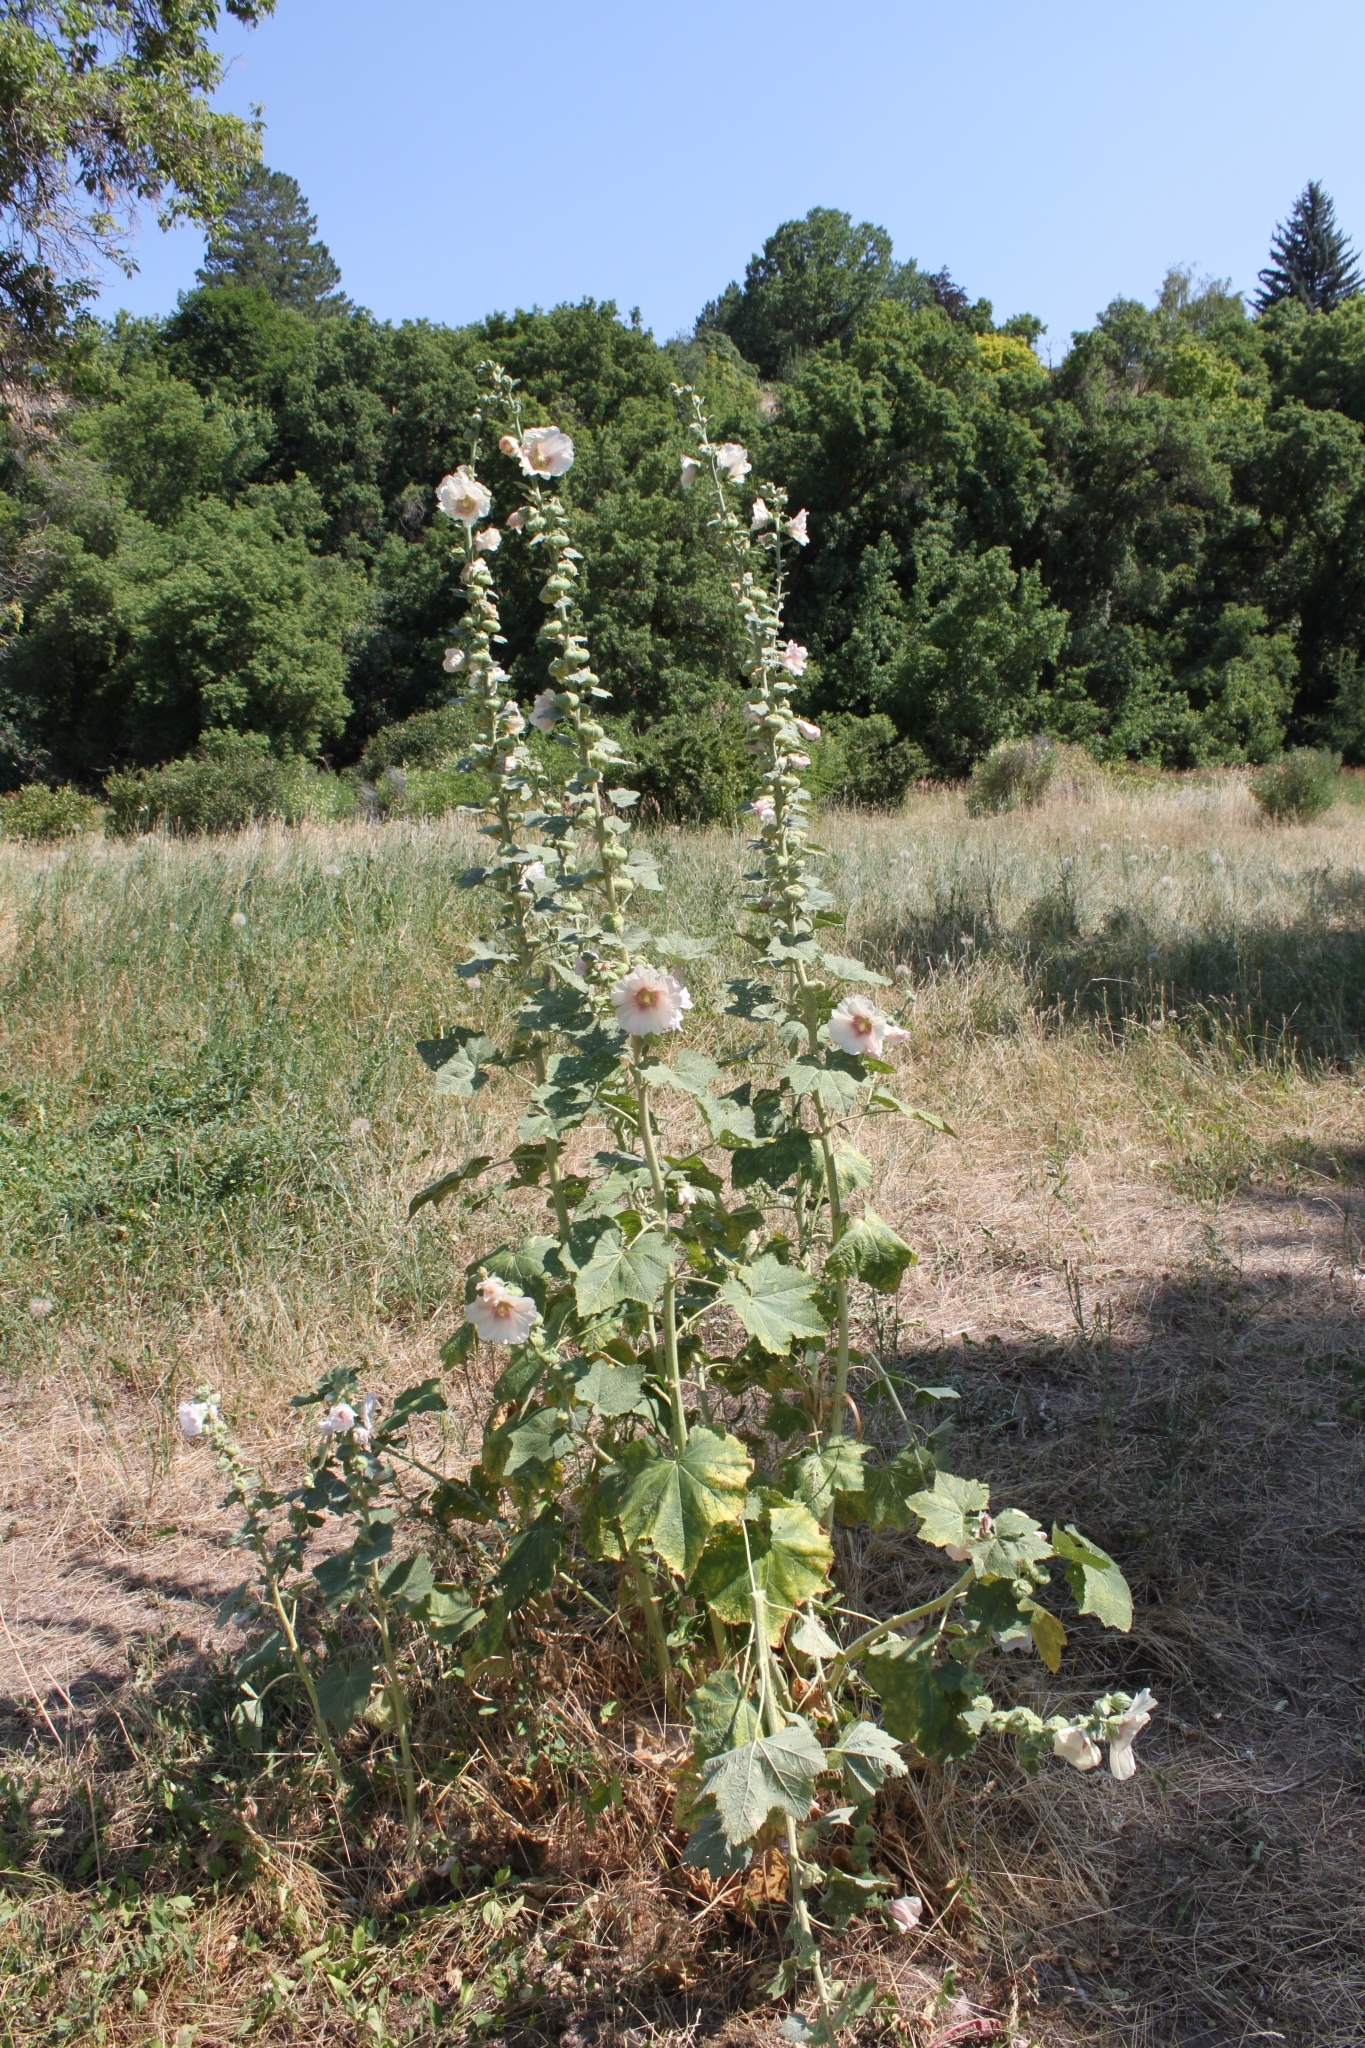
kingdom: Plantae
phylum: Tracheophyta
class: Magnoliopsida
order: Malvales
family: Malvaceae
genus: Alcea
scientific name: Alcea rosea
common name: Hollyhock
